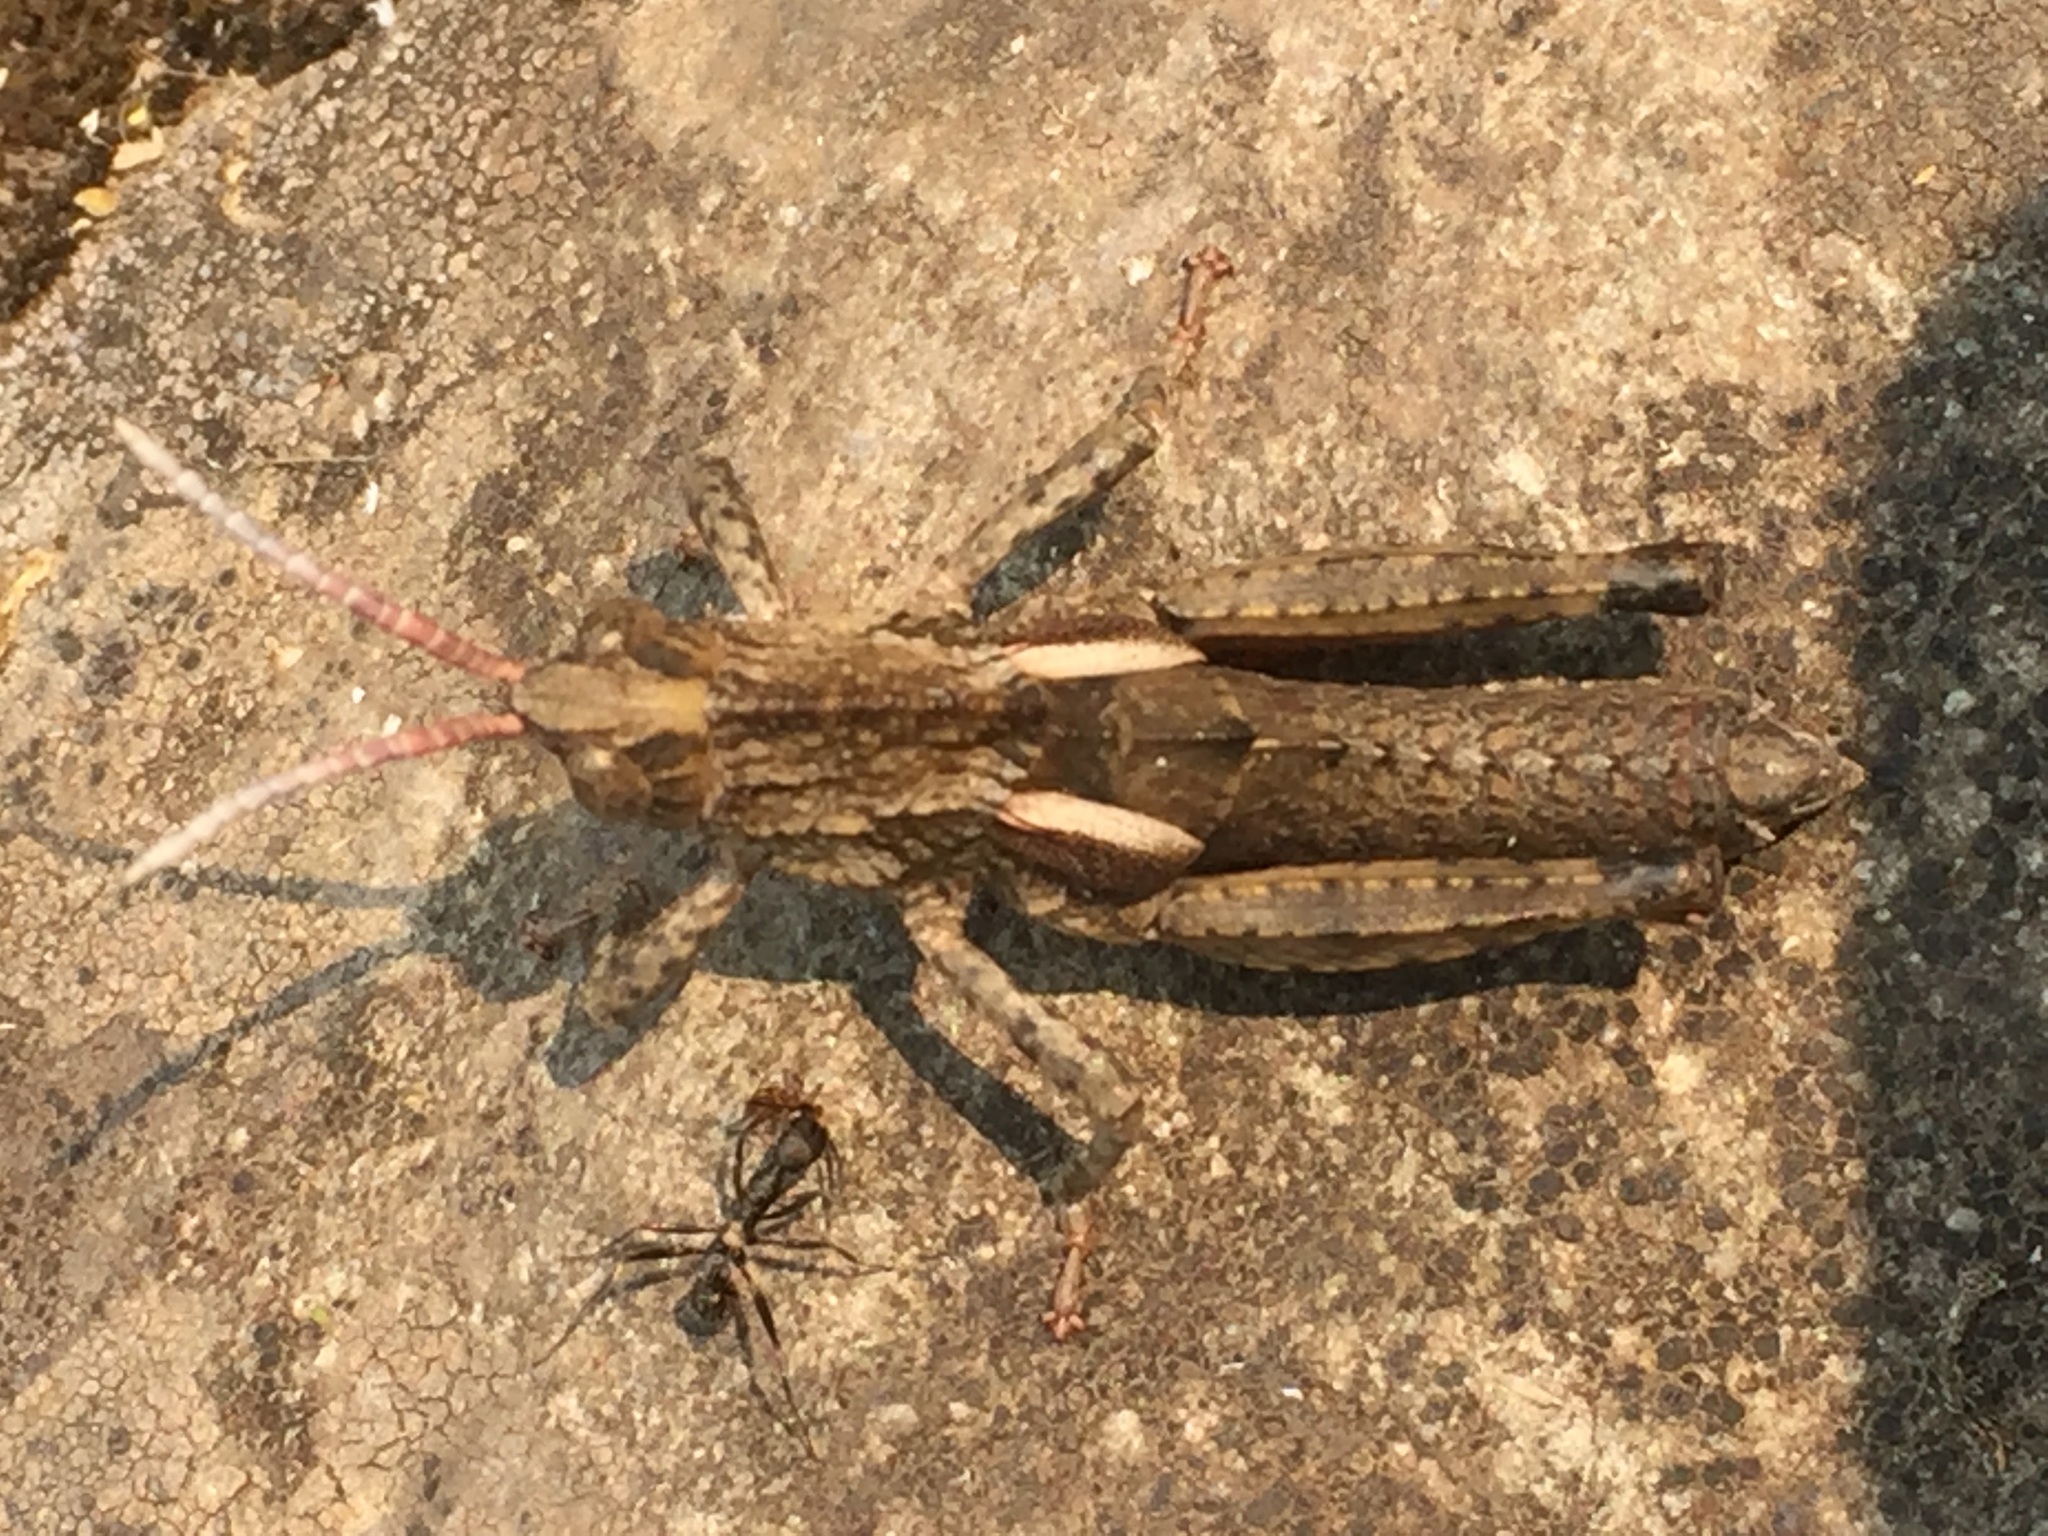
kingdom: Animalia
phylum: Arthropoda
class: Insecta
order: Orthoptera
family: Pamphagidae
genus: Eumigus
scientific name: Eumigus ayresi
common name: Ayres' stone grasshopper
